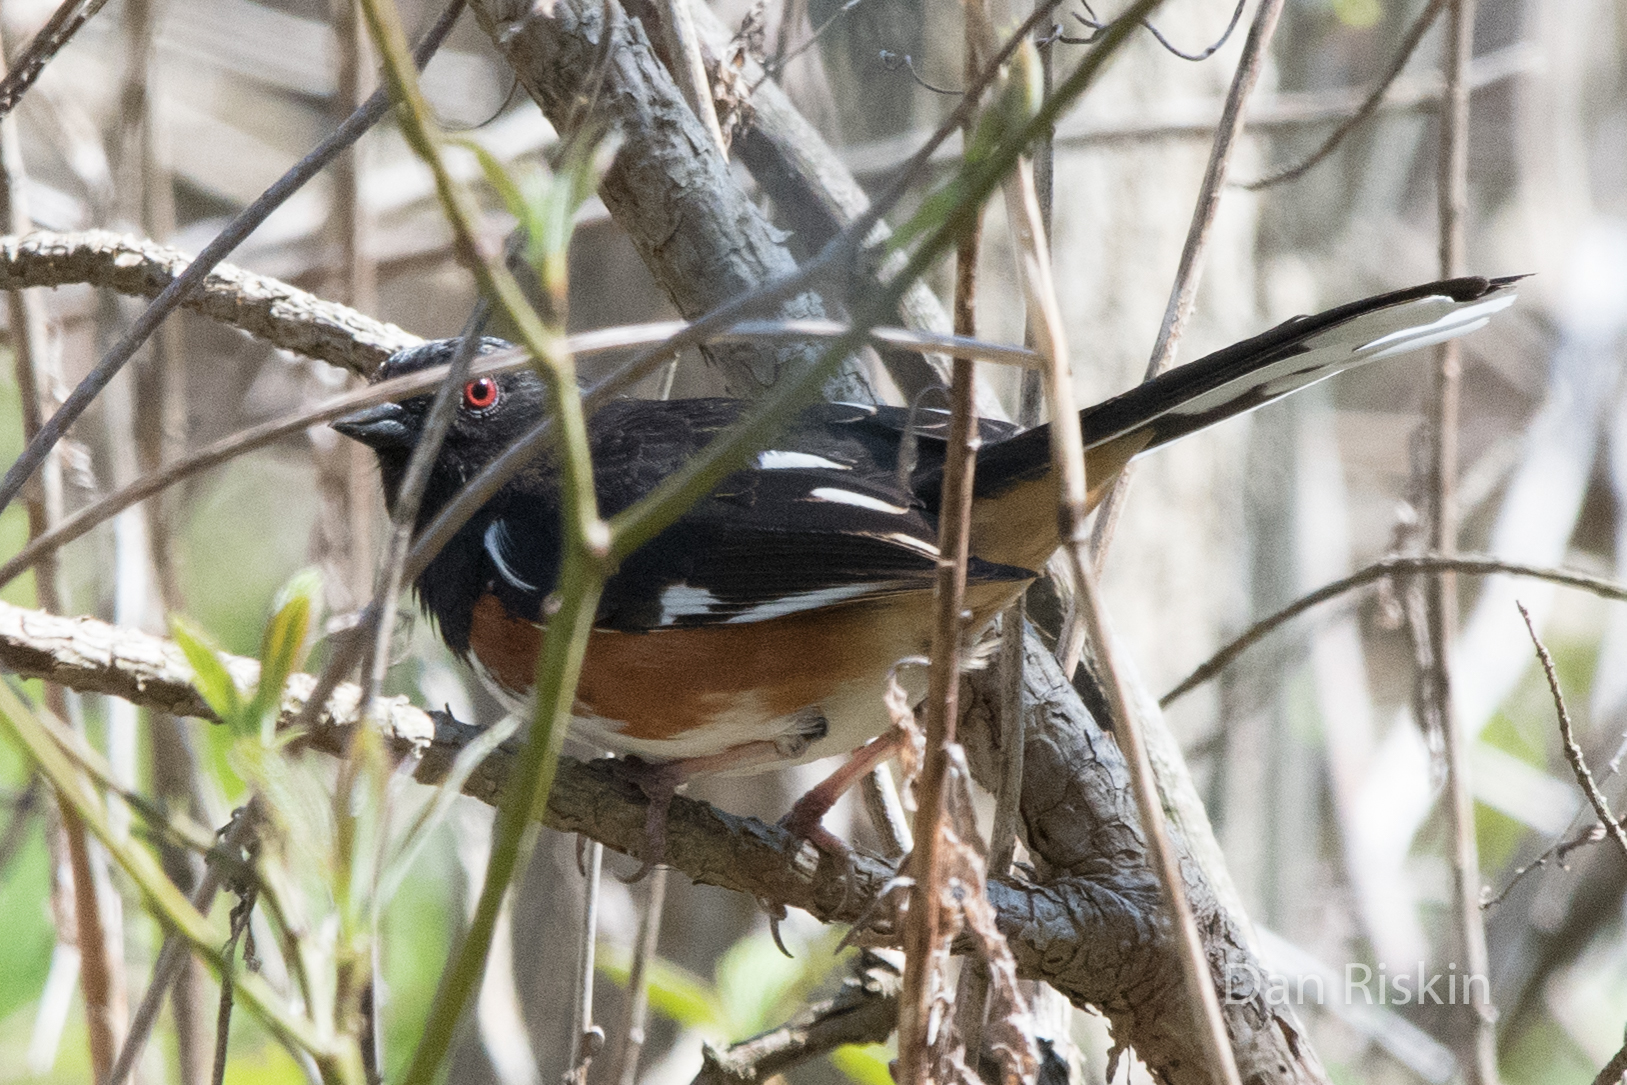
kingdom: Animalia
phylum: Chordata
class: Aves
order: Passeriformes
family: Passerellidae
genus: Pipilo
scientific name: Pipilo erythrophthalmus
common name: Eastern towhee
